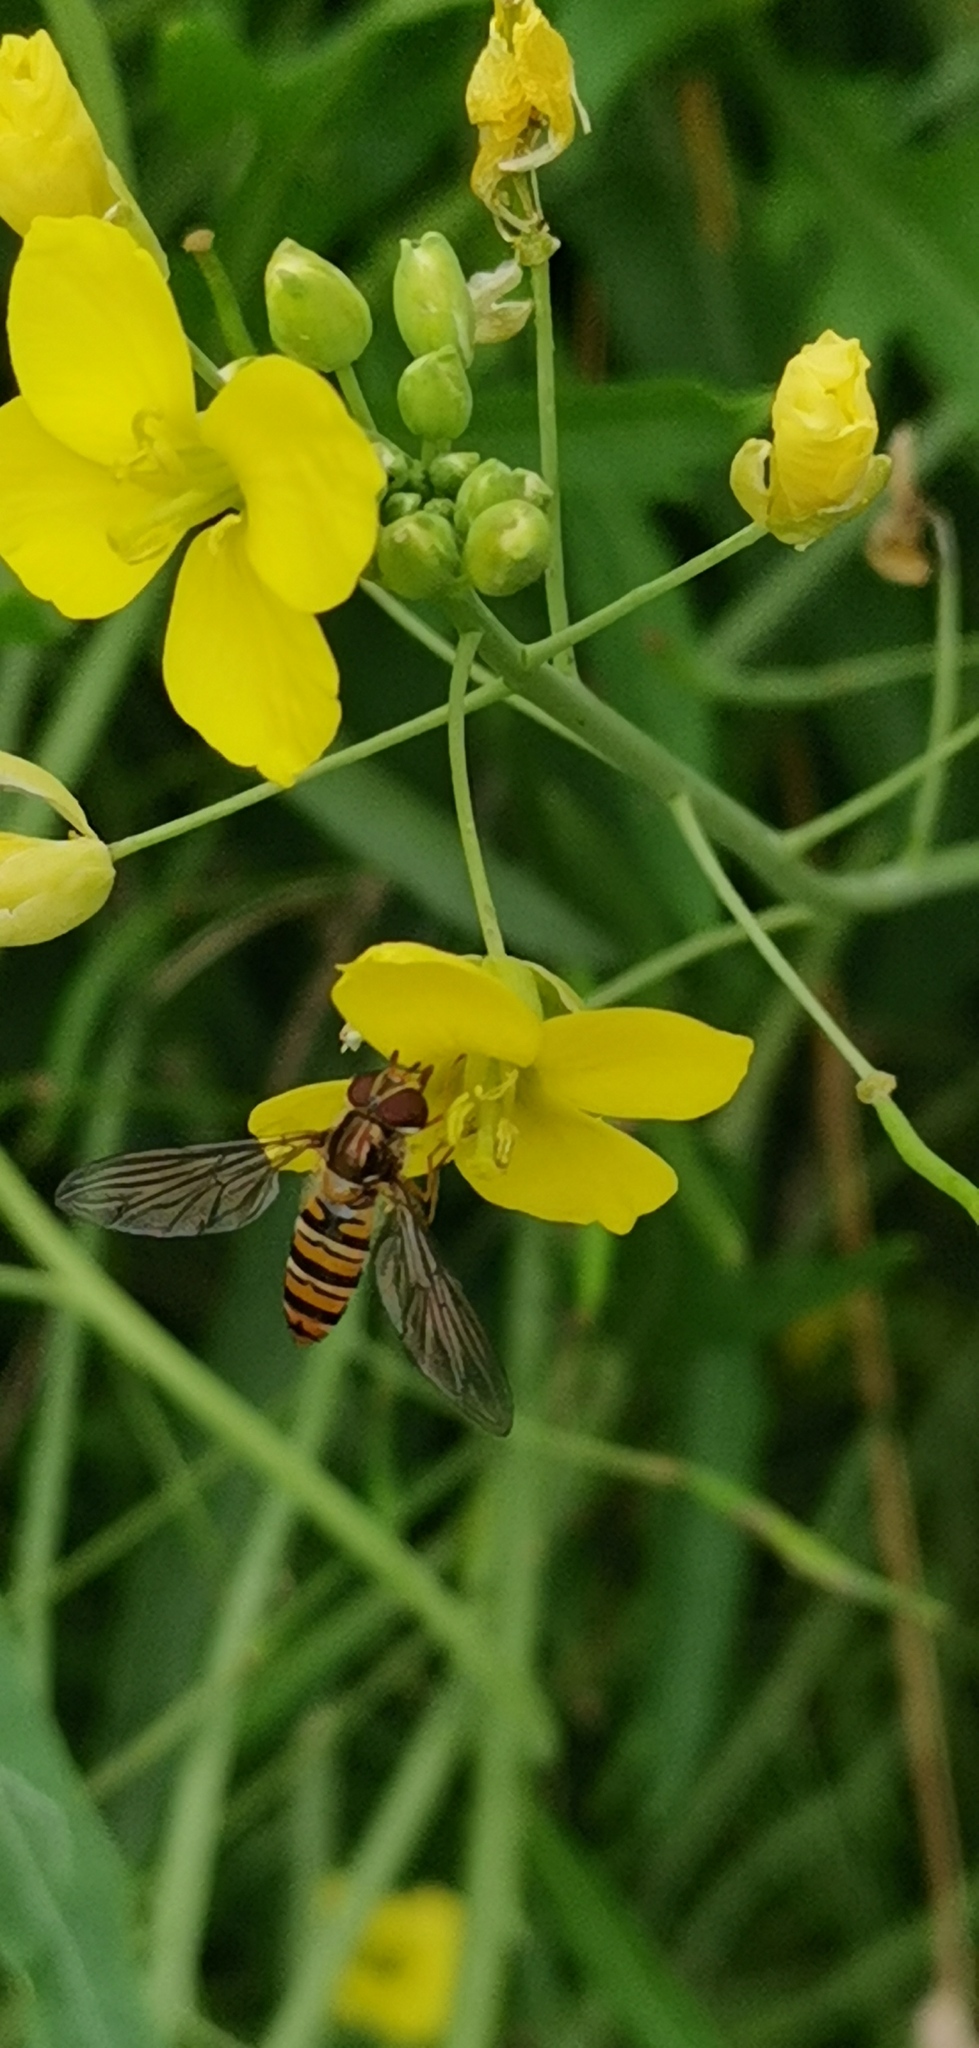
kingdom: Animalia
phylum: Arthropoda
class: Insecta
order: Diptera
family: Syrphidae
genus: Episyrphus
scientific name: Episyrphus balteatus
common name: Marmalade hoverfly
